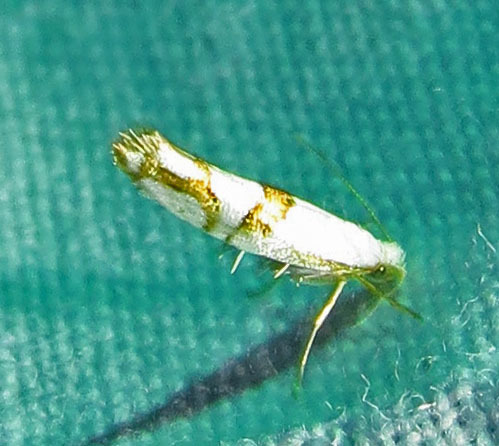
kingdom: Animalia
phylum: Arthropoda
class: Insecta
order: Lepidoptera
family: Argyresthiidae
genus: Argyresthia
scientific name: Argyresthia oreasella
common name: Cherry shoot borer moth
